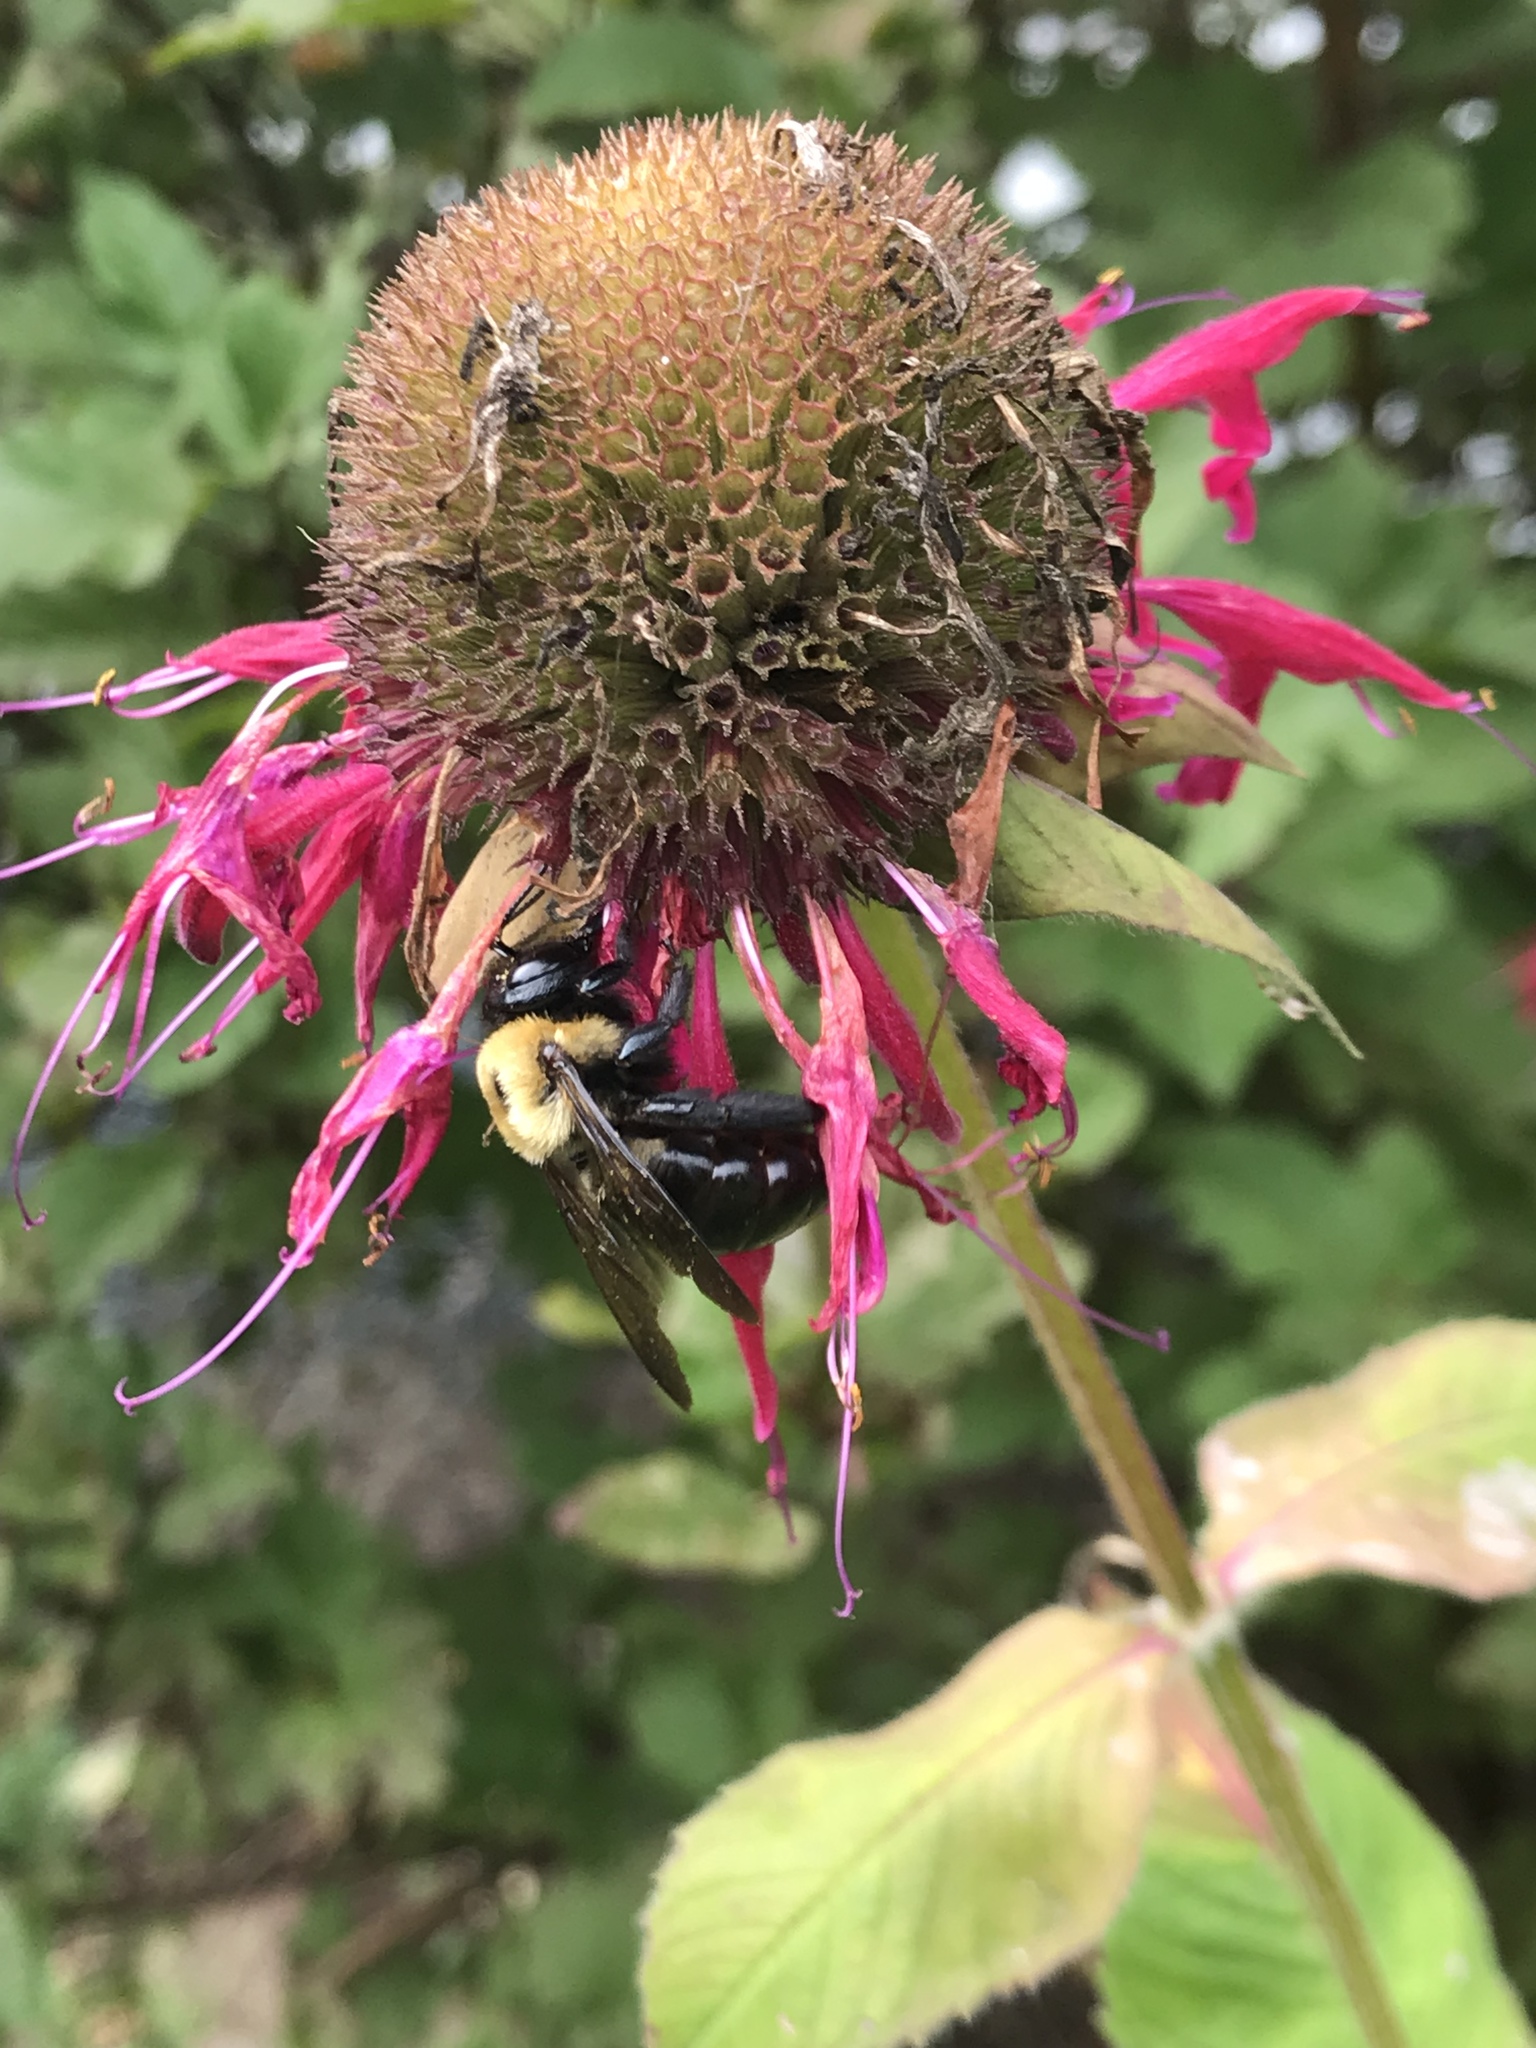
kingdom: Animalia
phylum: Arthropoda
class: Insecta
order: Hymenoptera
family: Apidae
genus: Xylocopa
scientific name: Xylocopa virginica
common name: Carpenter bee
